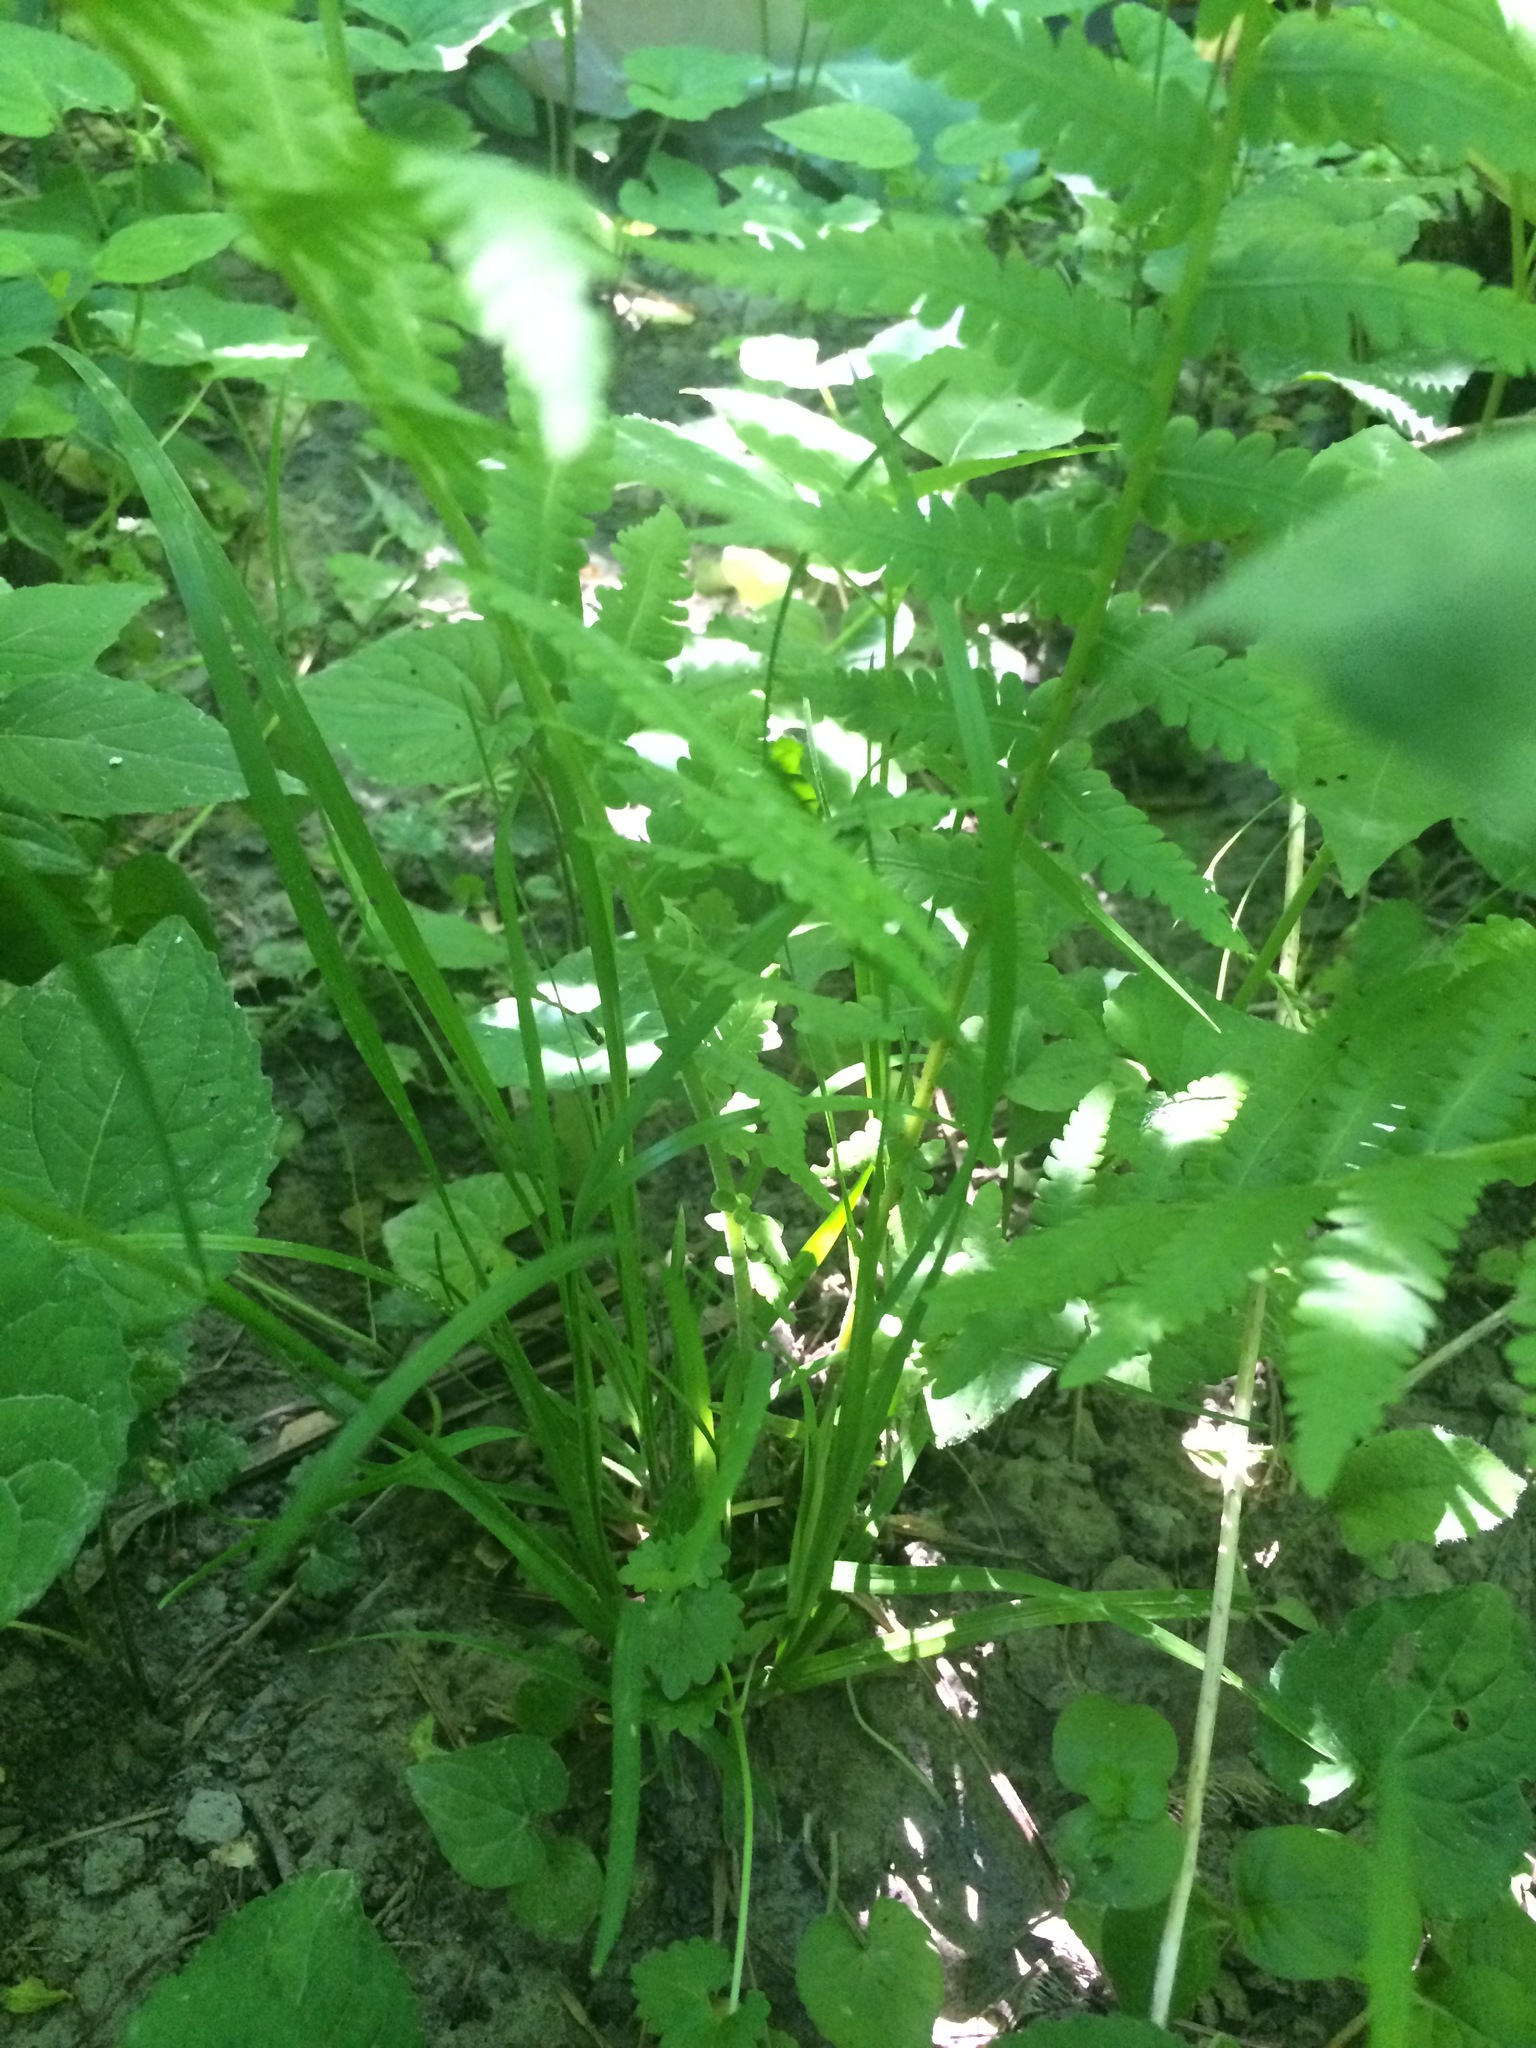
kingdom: Plantae
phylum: Tracheophyta
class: Liliopsida
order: Poales
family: Poaceae
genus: Poa
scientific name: Poa alsodes
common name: Grove bluegrass
